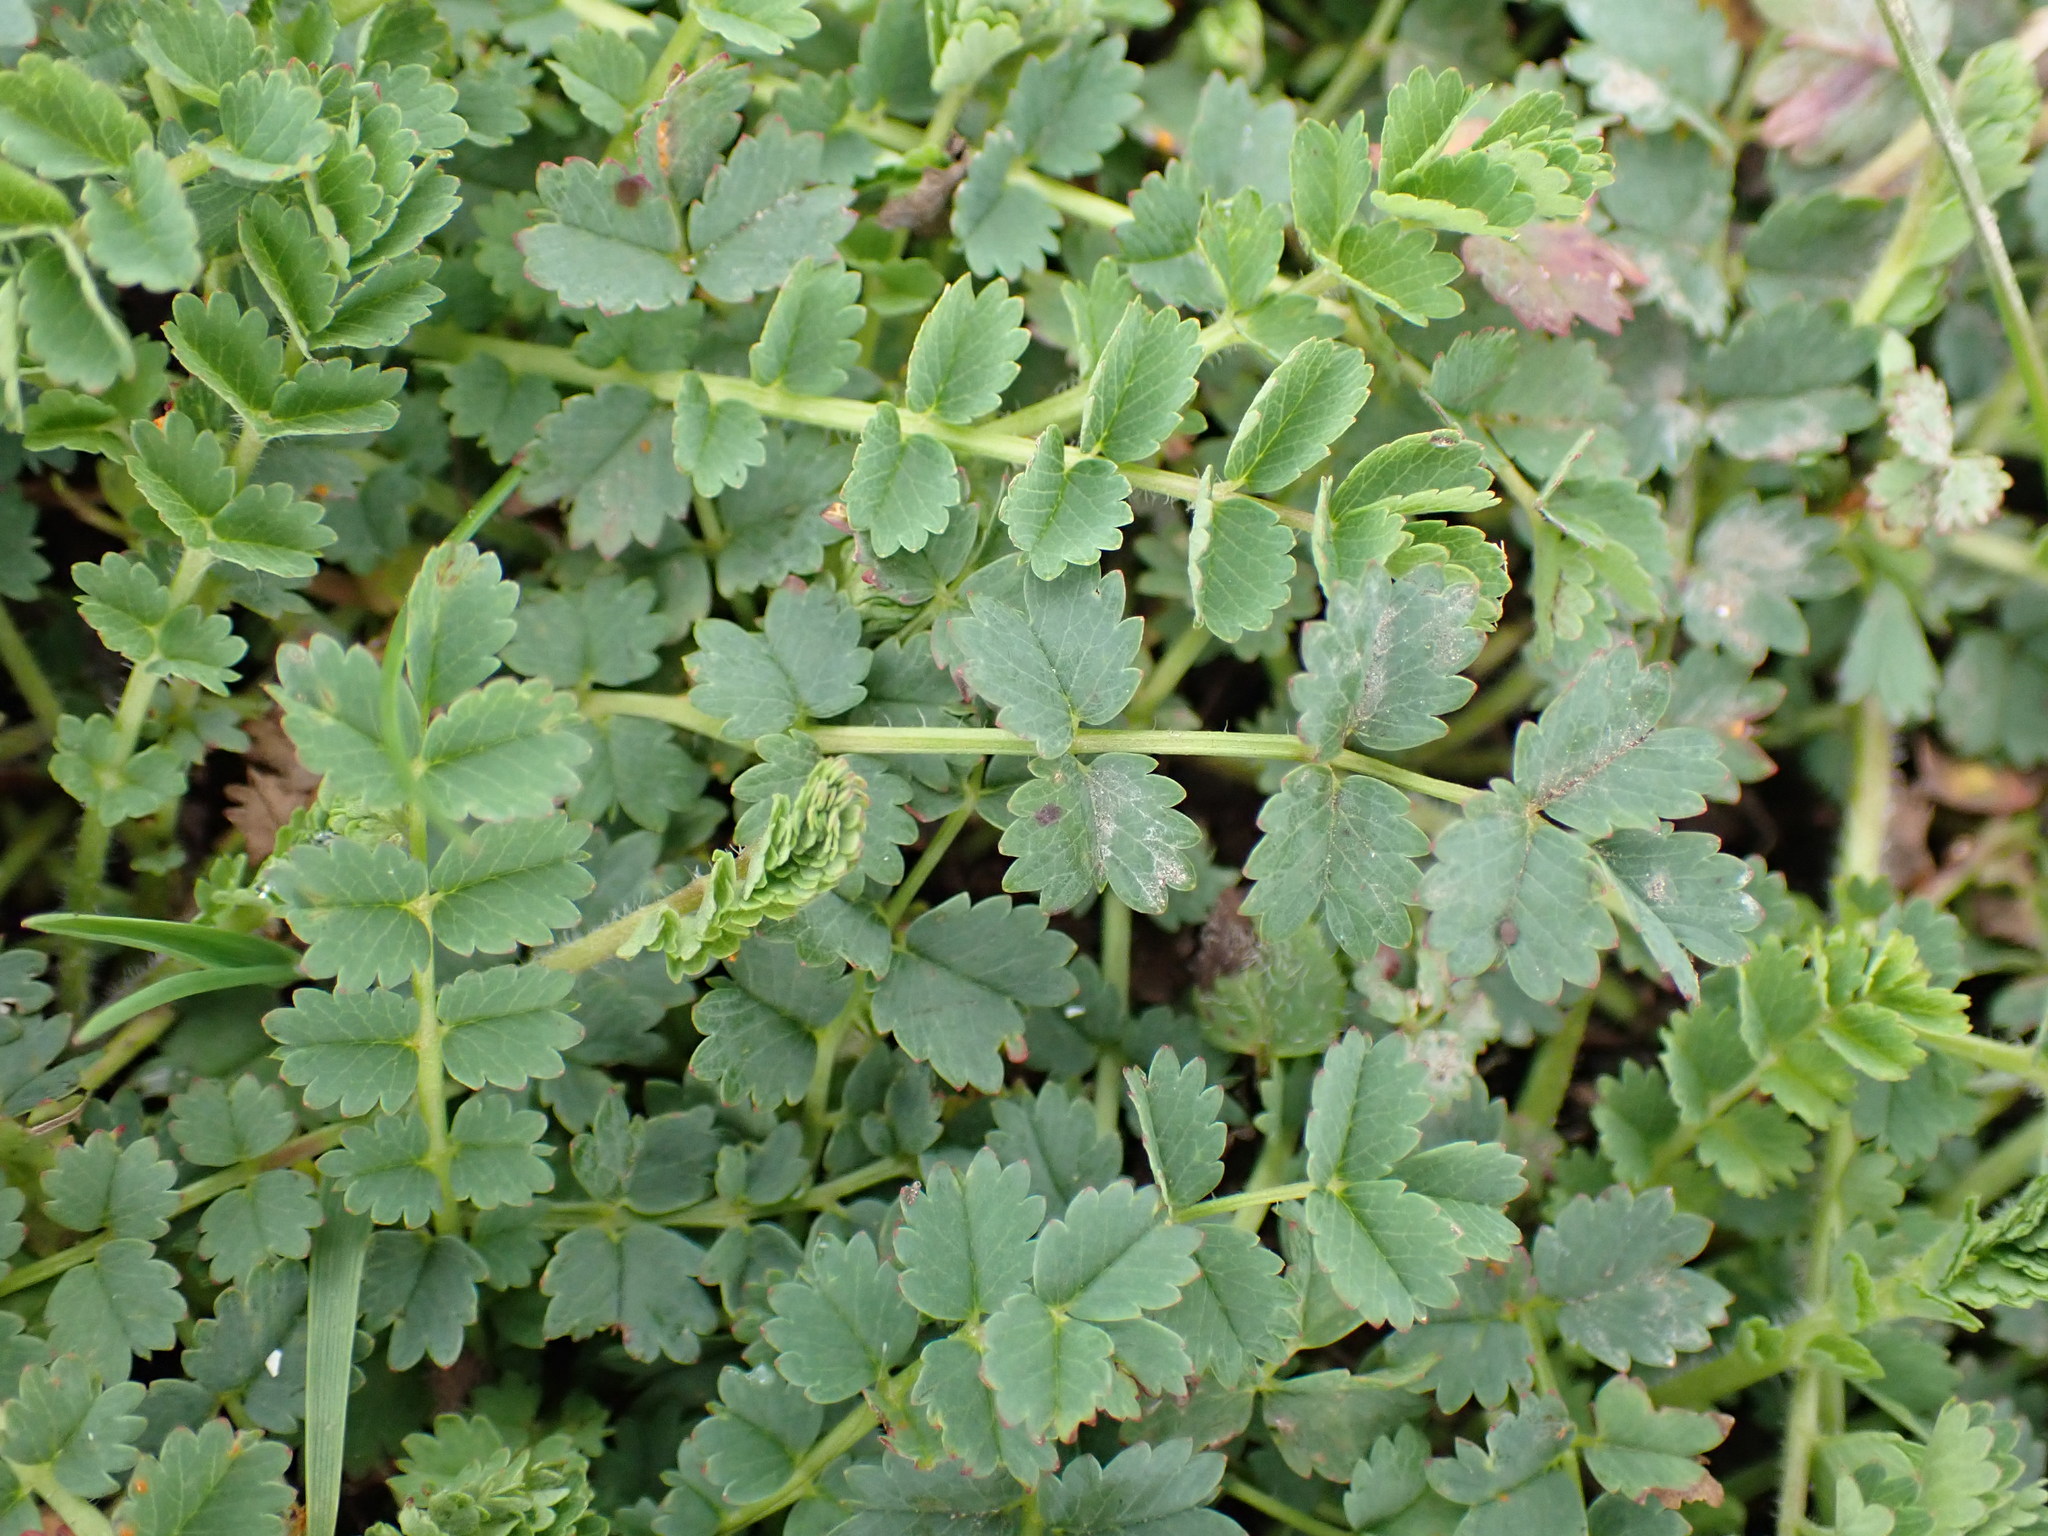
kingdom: Plantae
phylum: Tracheophyta
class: Magnoliopsida
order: Rosales
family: Rosaceae
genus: Poterium
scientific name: Poterium sanguisorba
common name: Salad burnet
